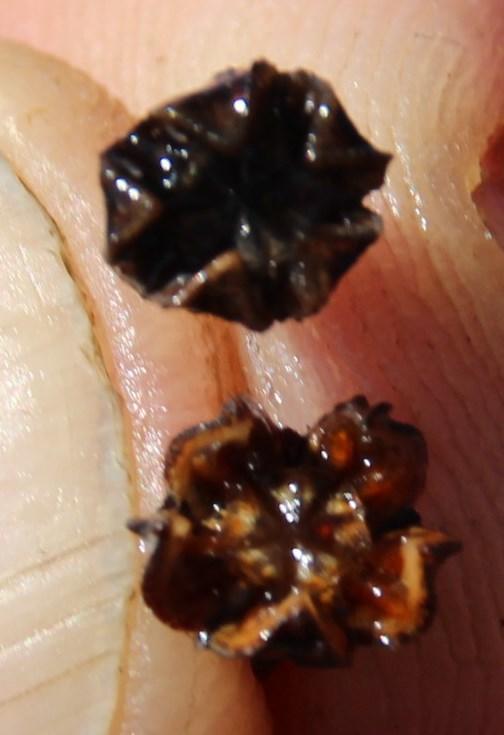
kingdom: Plantae
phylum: Tracheophyta
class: Magnoliopsida
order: Caryophyllales
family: Aizoaceae
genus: Ruschia
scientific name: Ruschia lineolata
